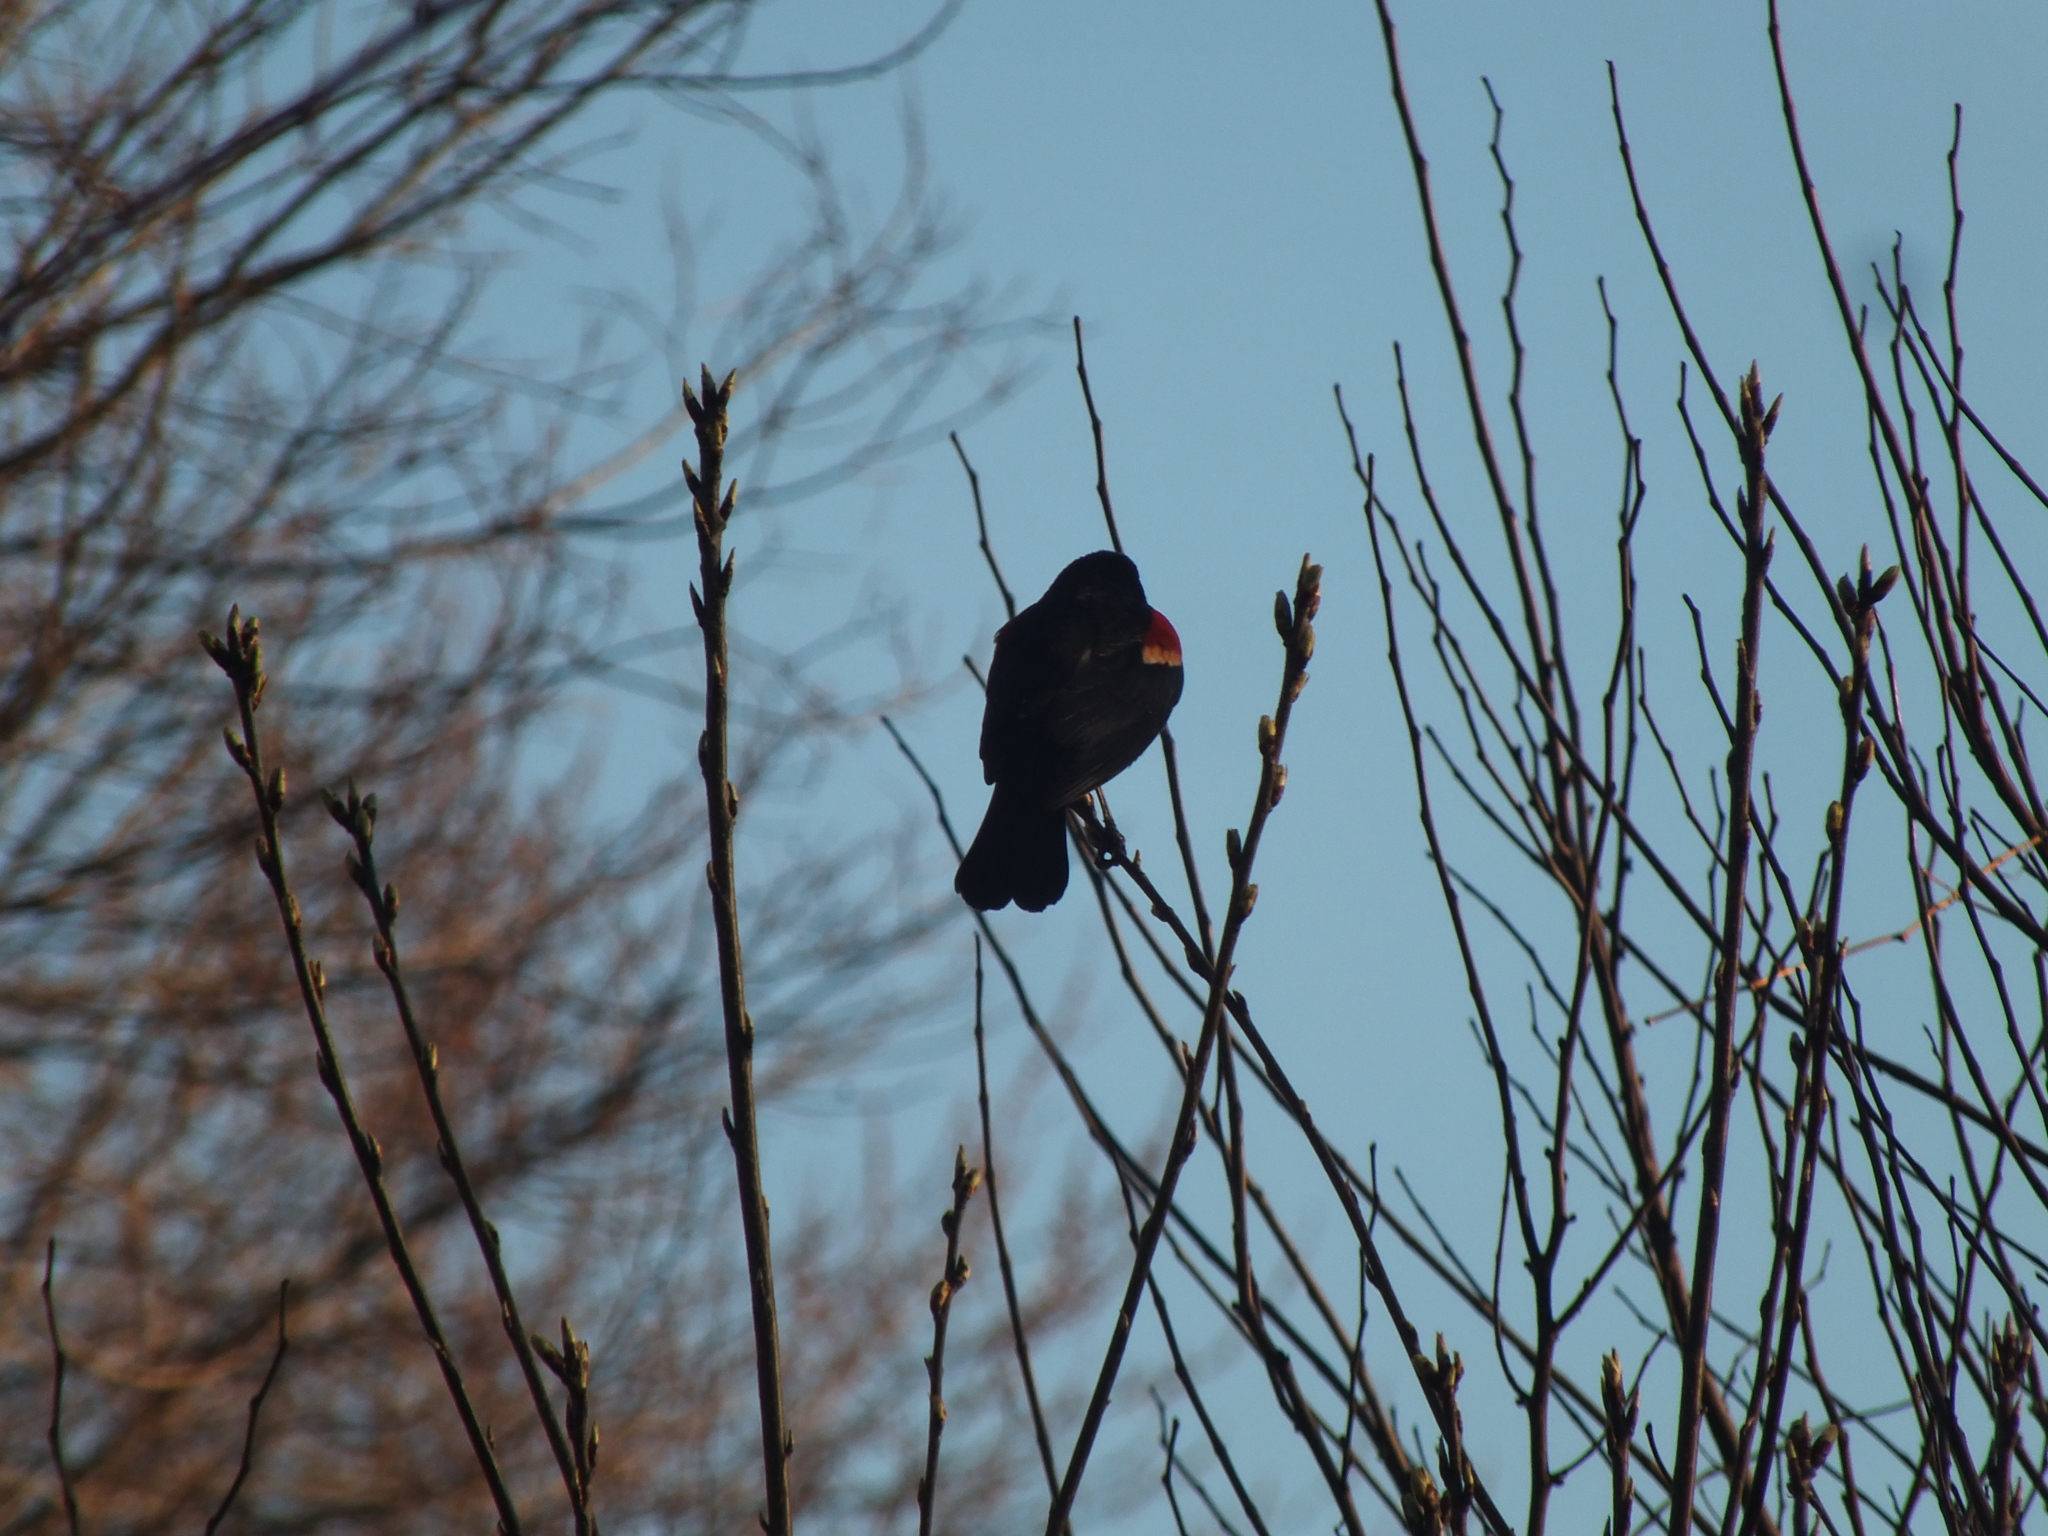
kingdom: Animalia
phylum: Chordata
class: Aves
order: Passeriformes
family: Icteridae
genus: Agelaius
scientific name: Agelaius phoeniceus
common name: Red-winged blackbird
